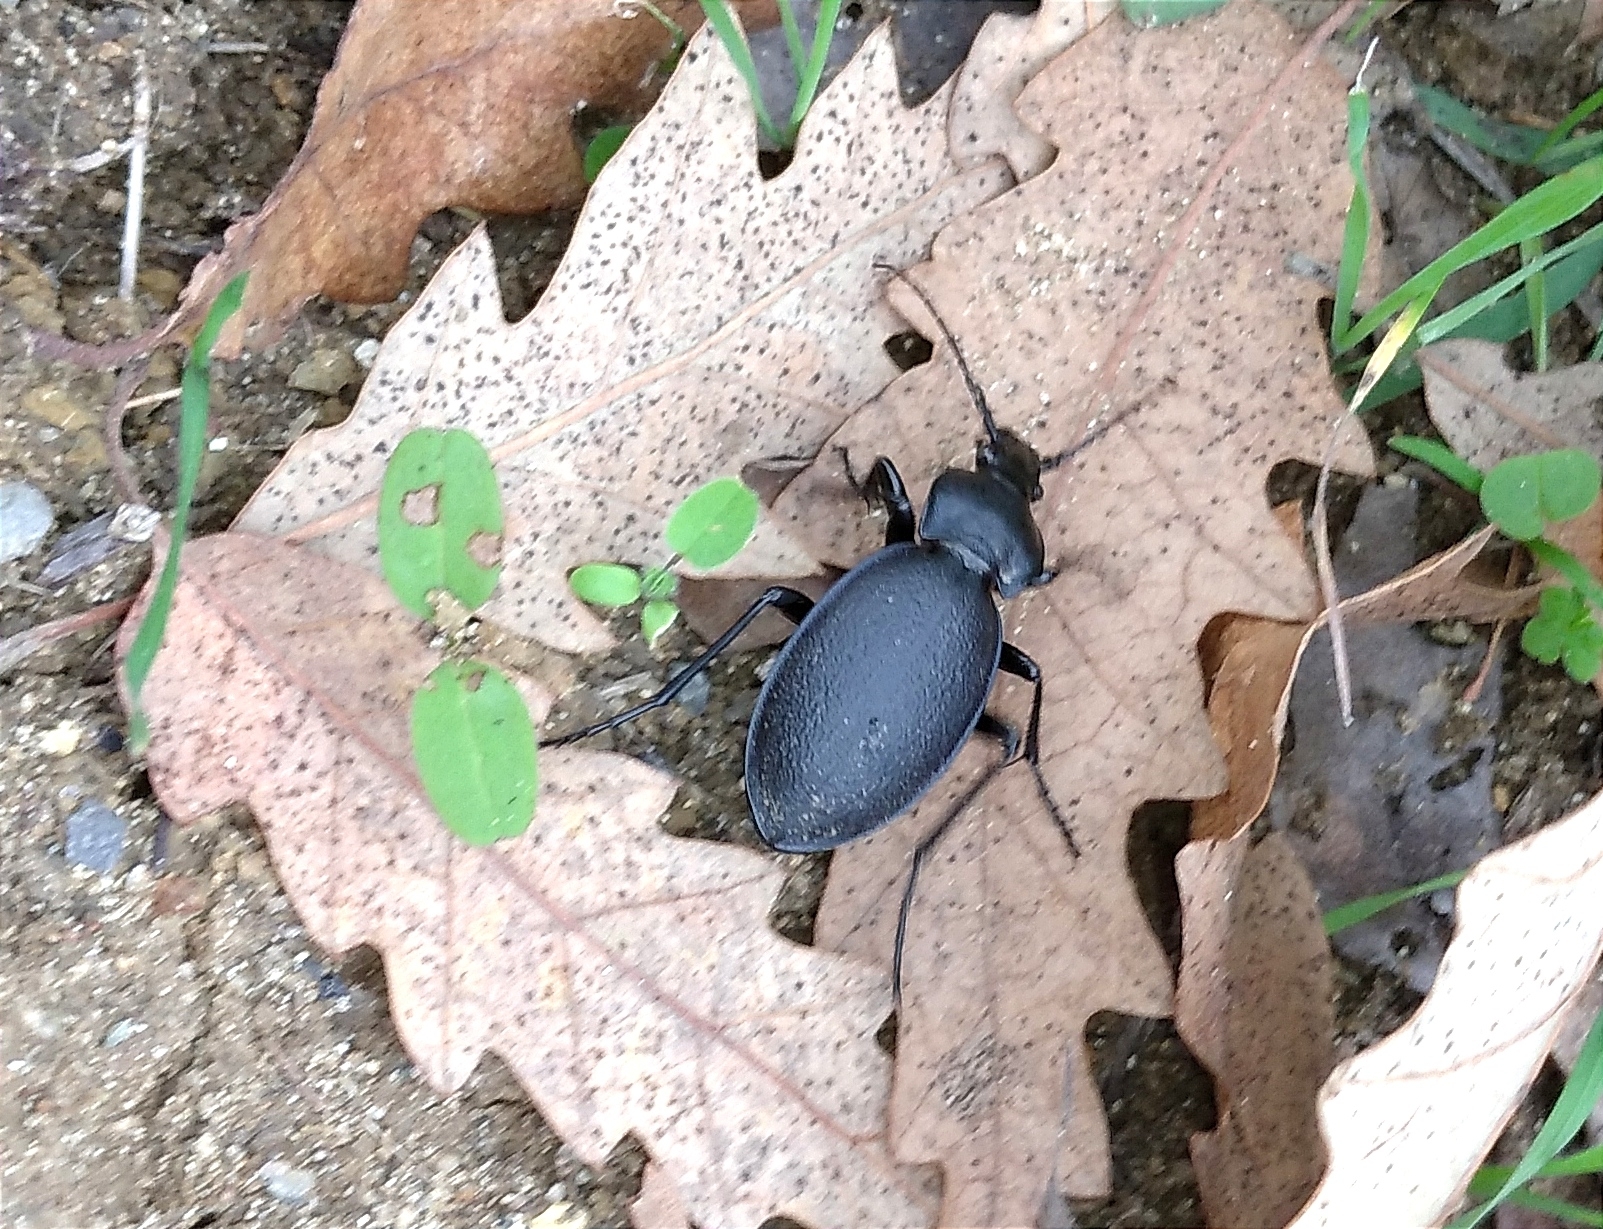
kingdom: Animalia
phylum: Arthropoda
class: Insecta
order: Coleoptera
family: Carabidae
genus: Carabus
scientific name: Carabus coriaceus
